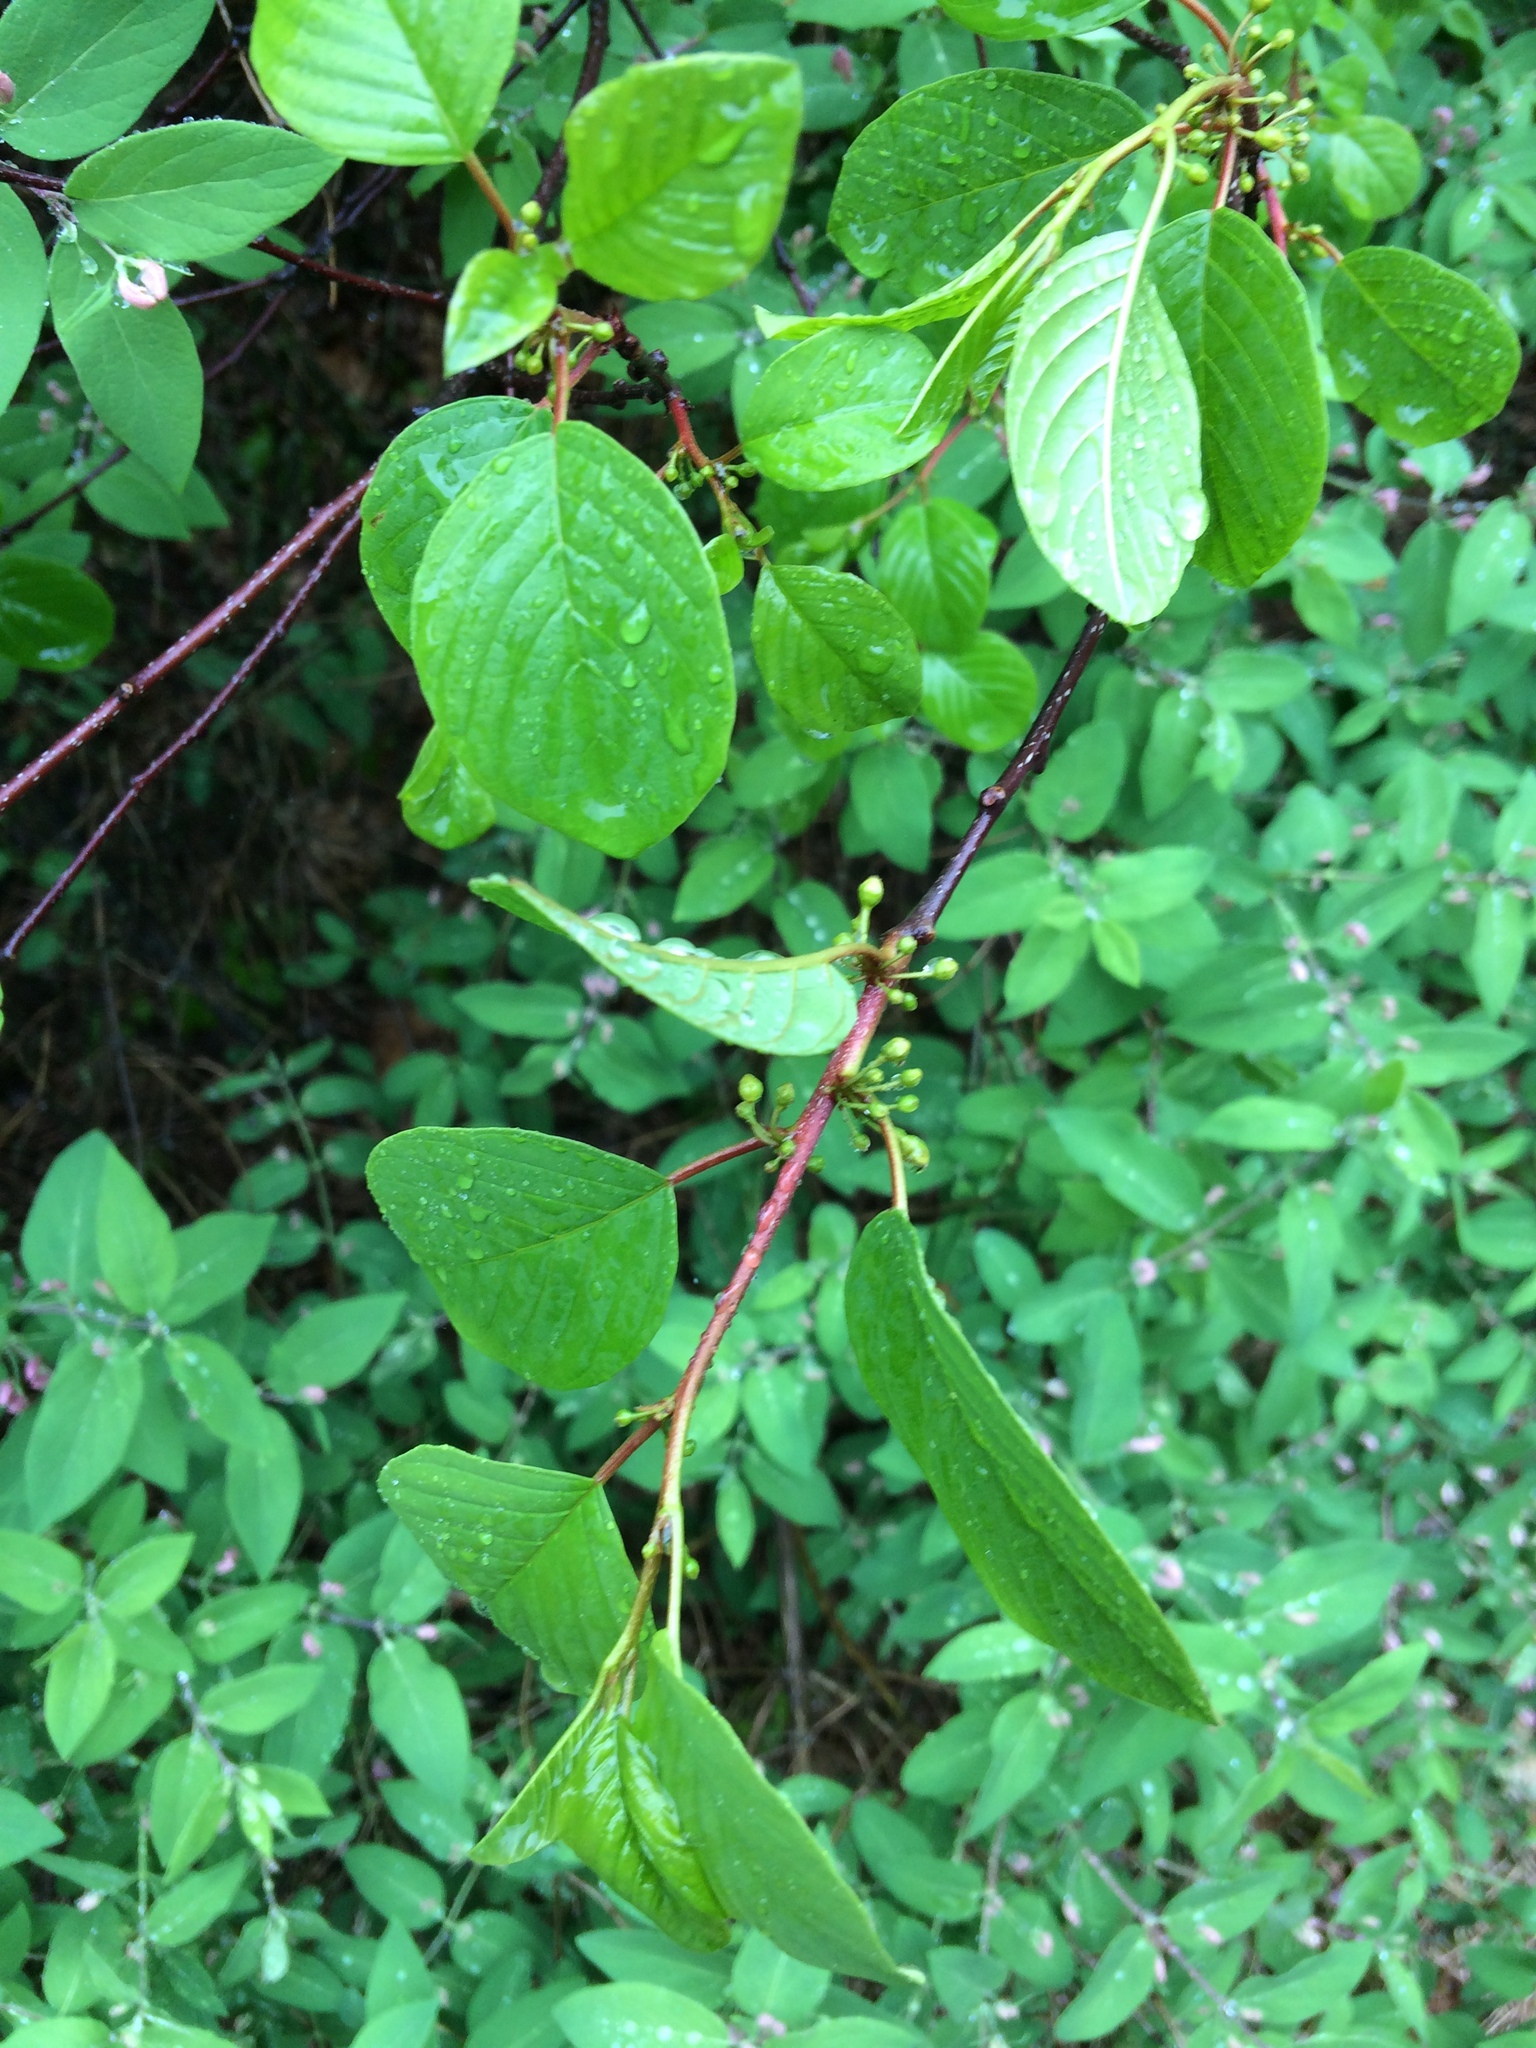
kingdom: Plantae
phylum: Tracheophyta
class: Magnoliopsida
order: Rosales
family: Rhamnaceae
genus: Frangula
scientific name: Frangula alnus
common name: Alder buckthorn
